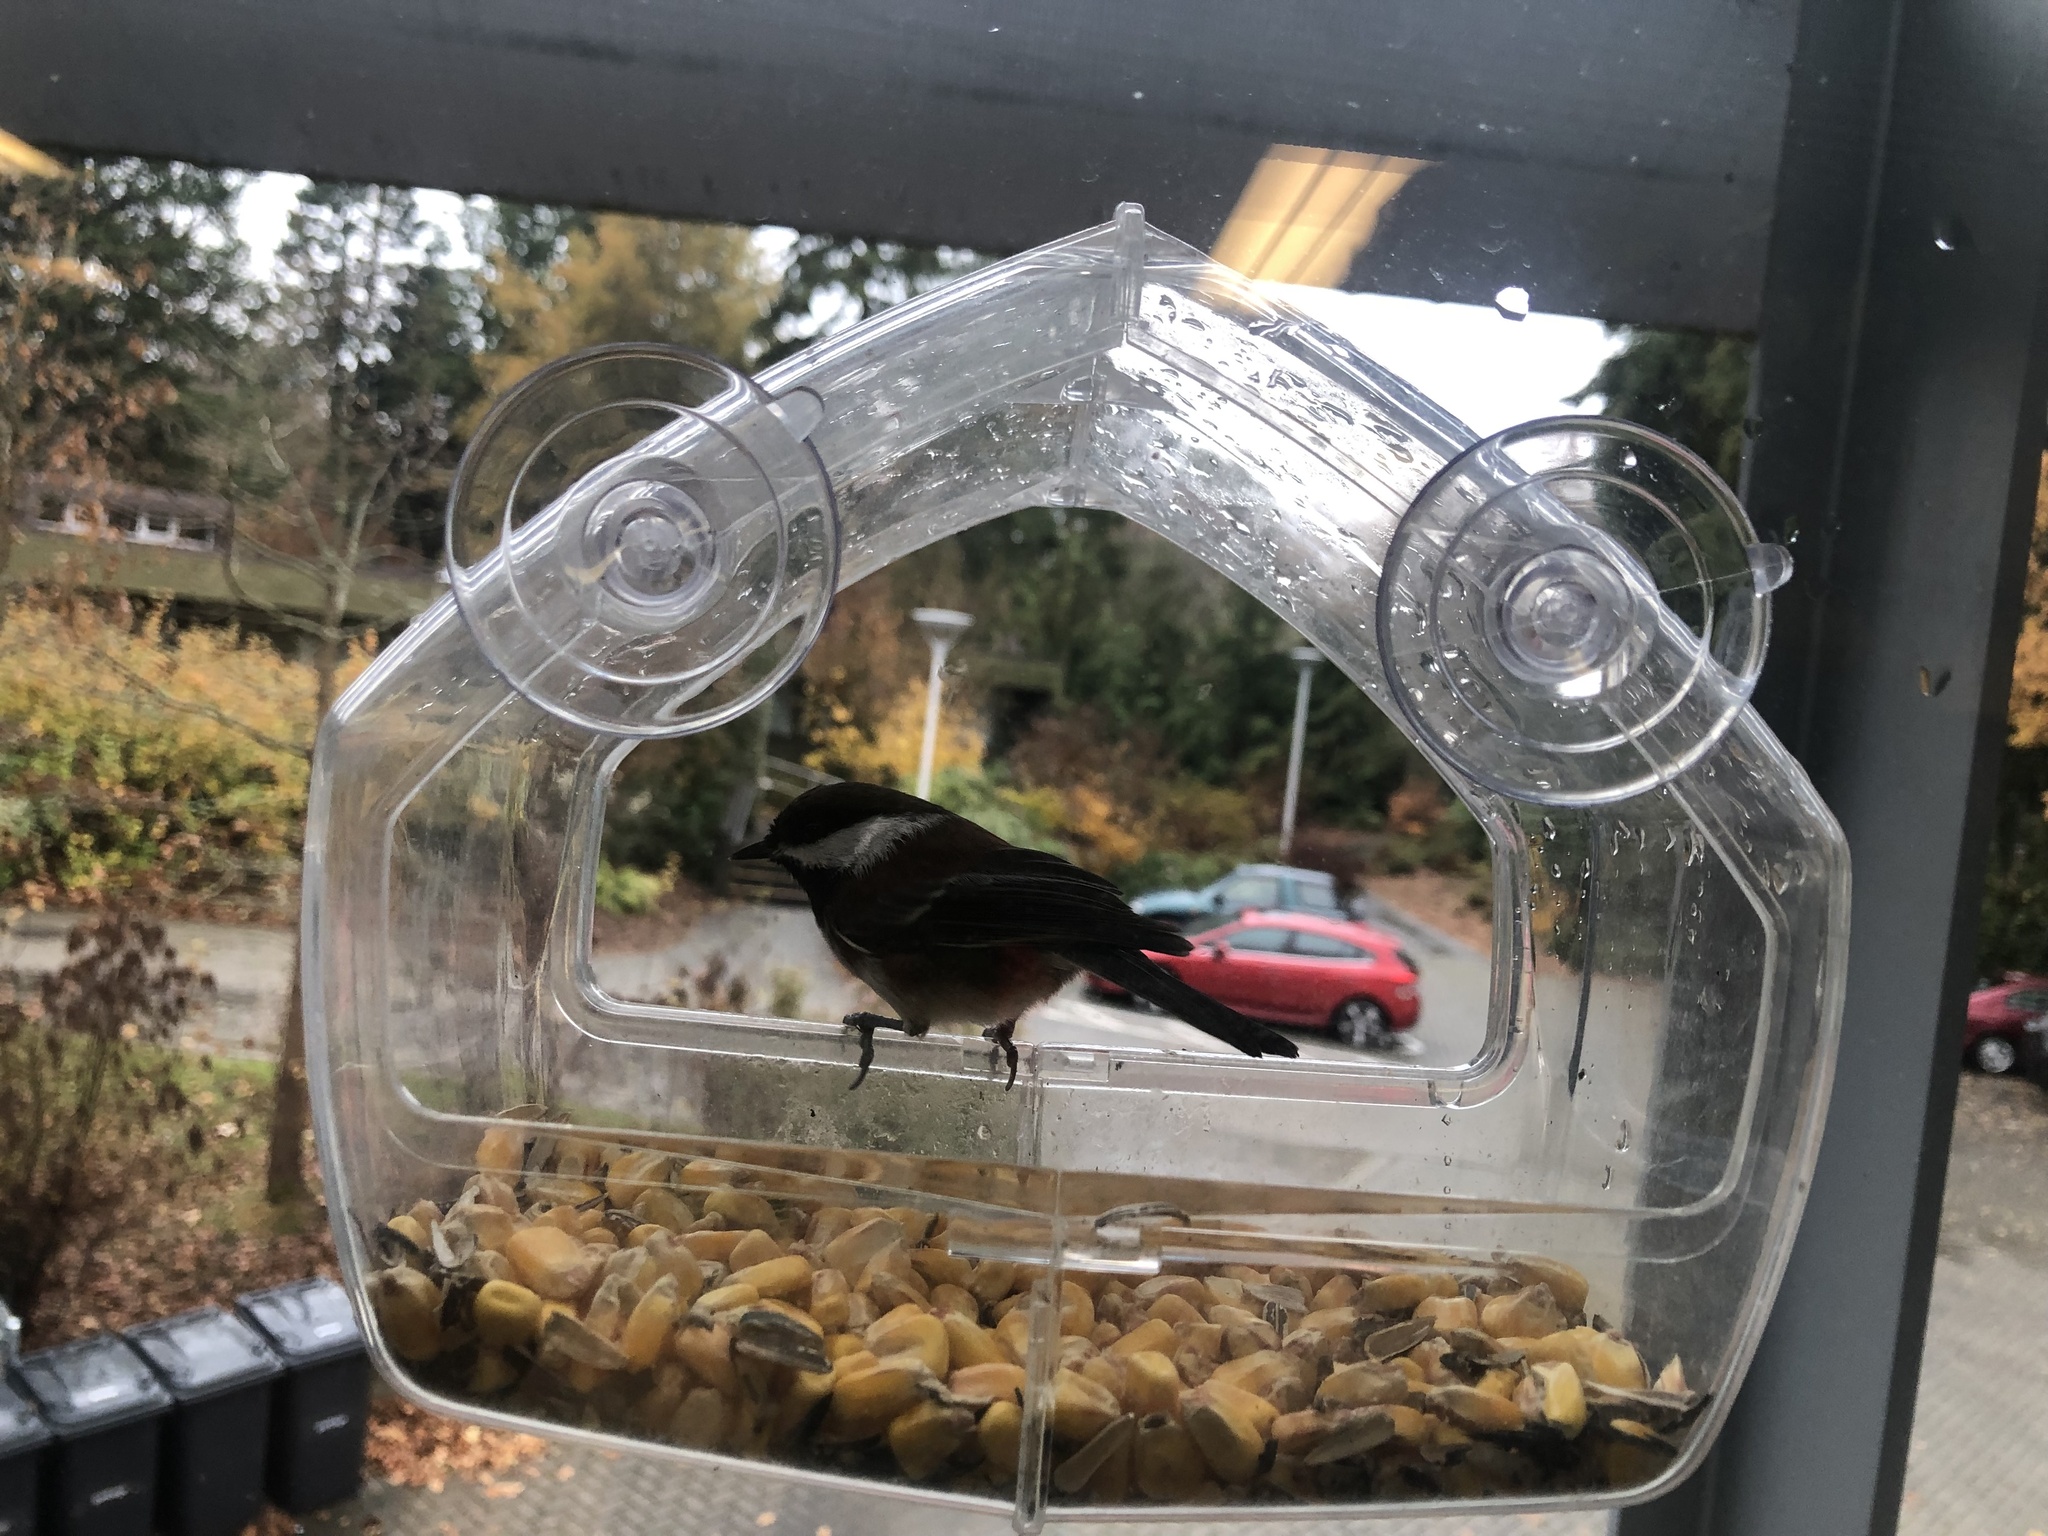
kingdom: Animalia
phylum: Chordata
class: Aves
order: Passeriformes
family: Paridae
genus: Poecile
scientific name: Poecile rufescens
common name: Chestnut-backed chickadee
